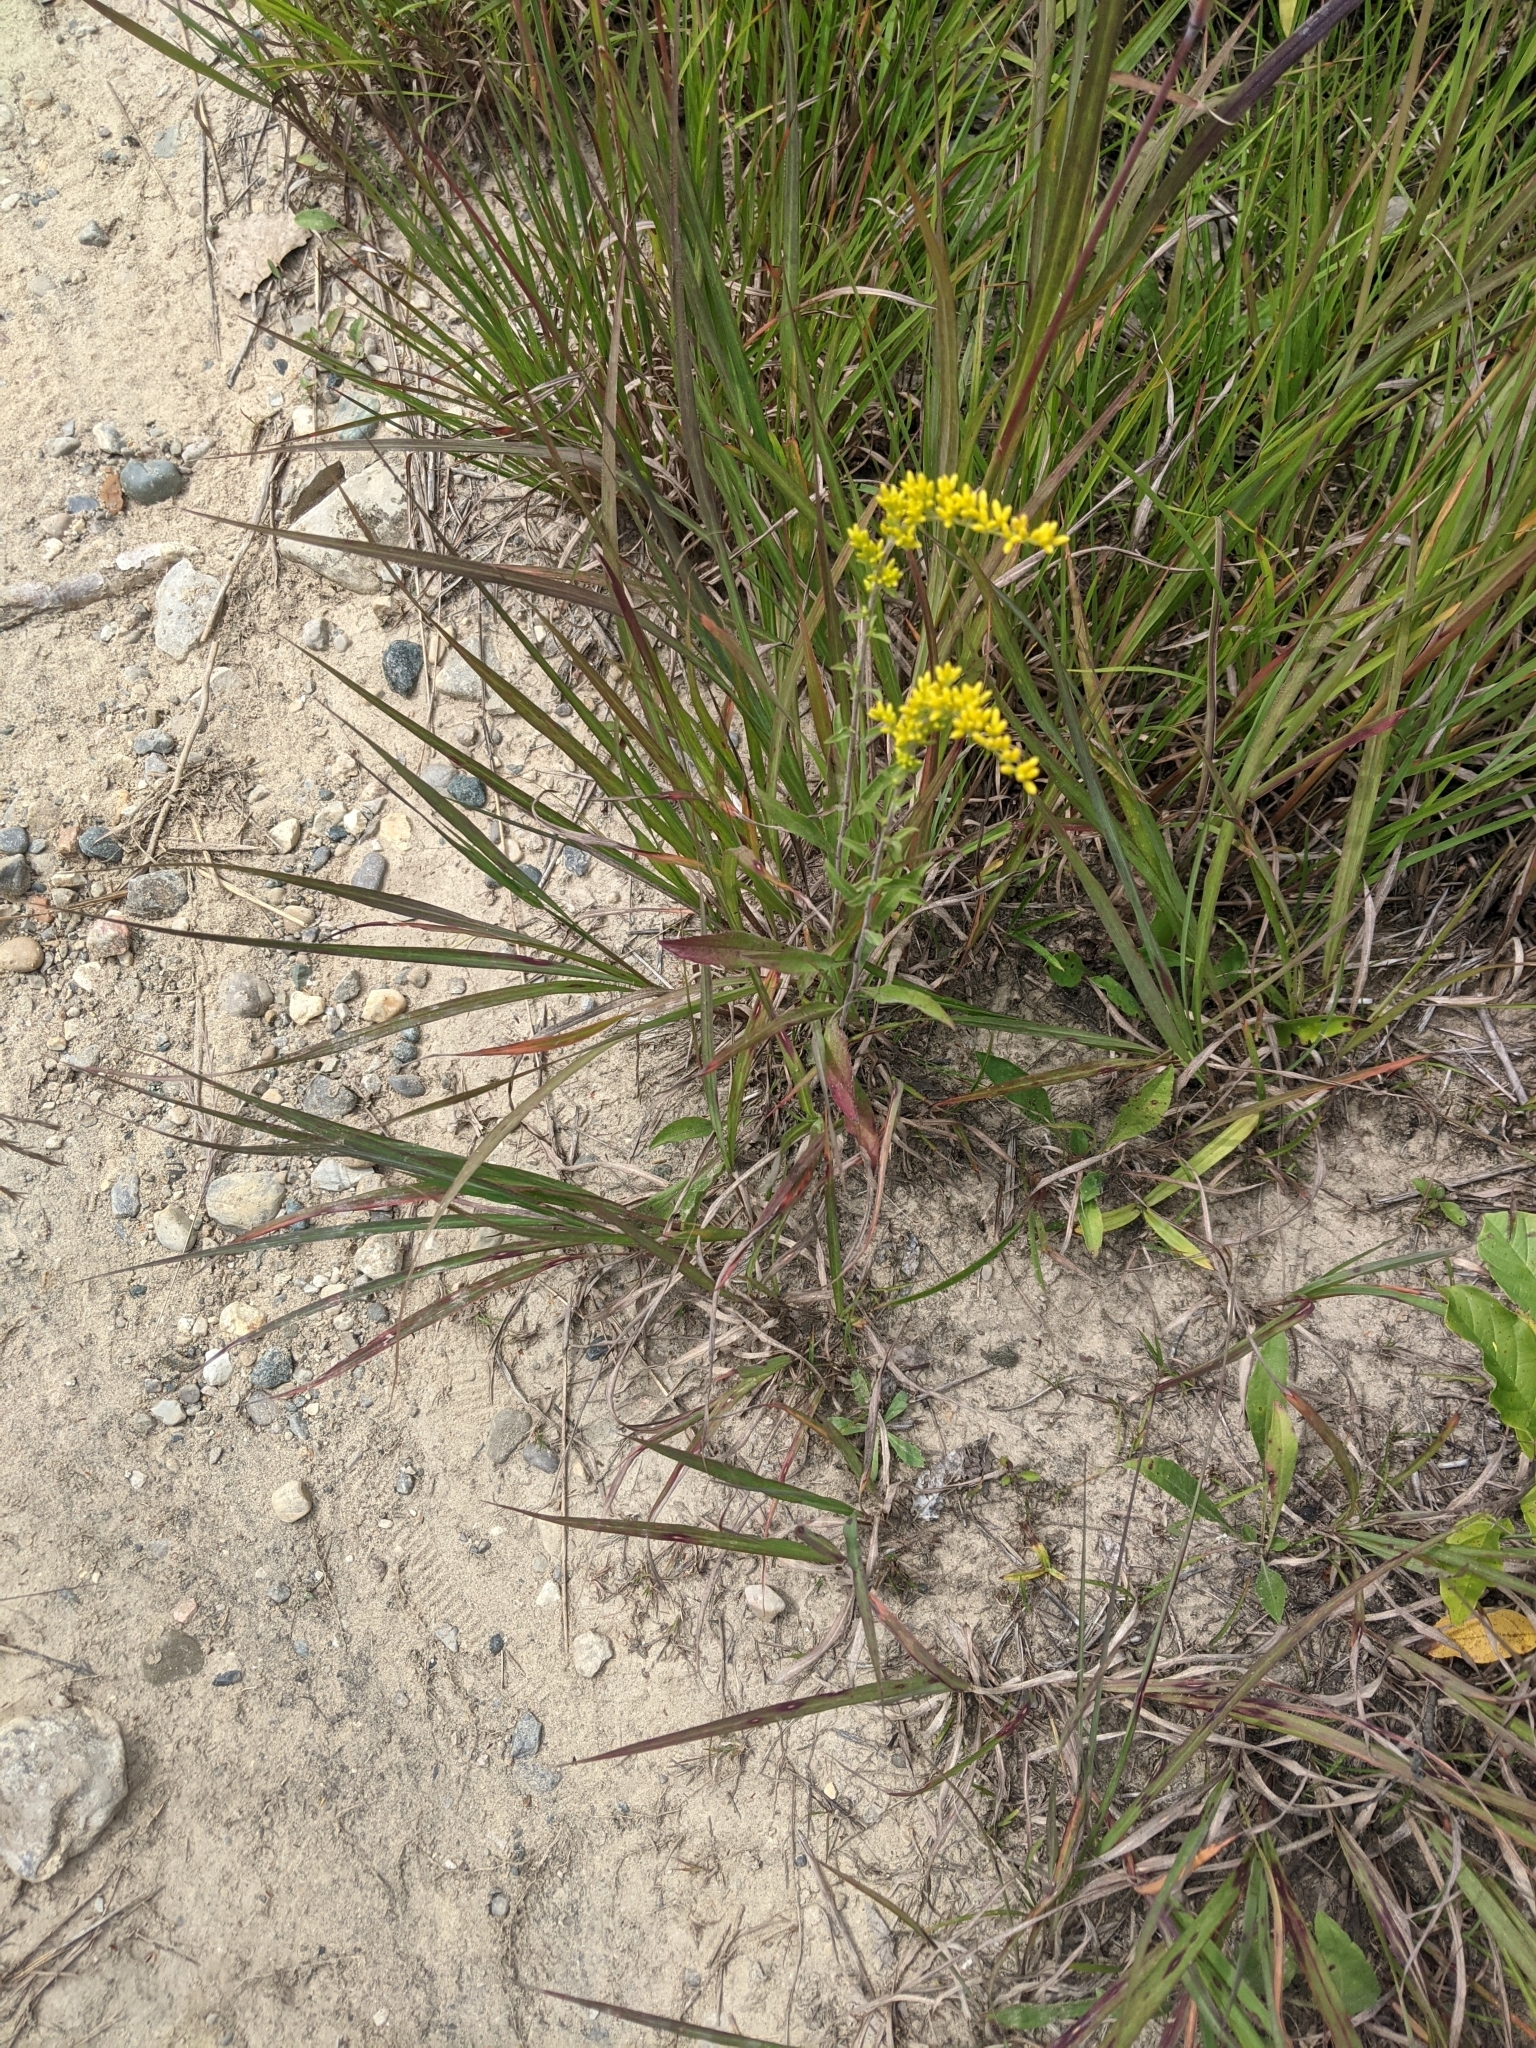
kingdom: Plantae
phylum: Tracheophyta
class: Magnoliopsida
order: Asterales
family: Asteraceae
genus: Solidago
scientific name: Solidago nemoralis
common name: Grey goldenrod
